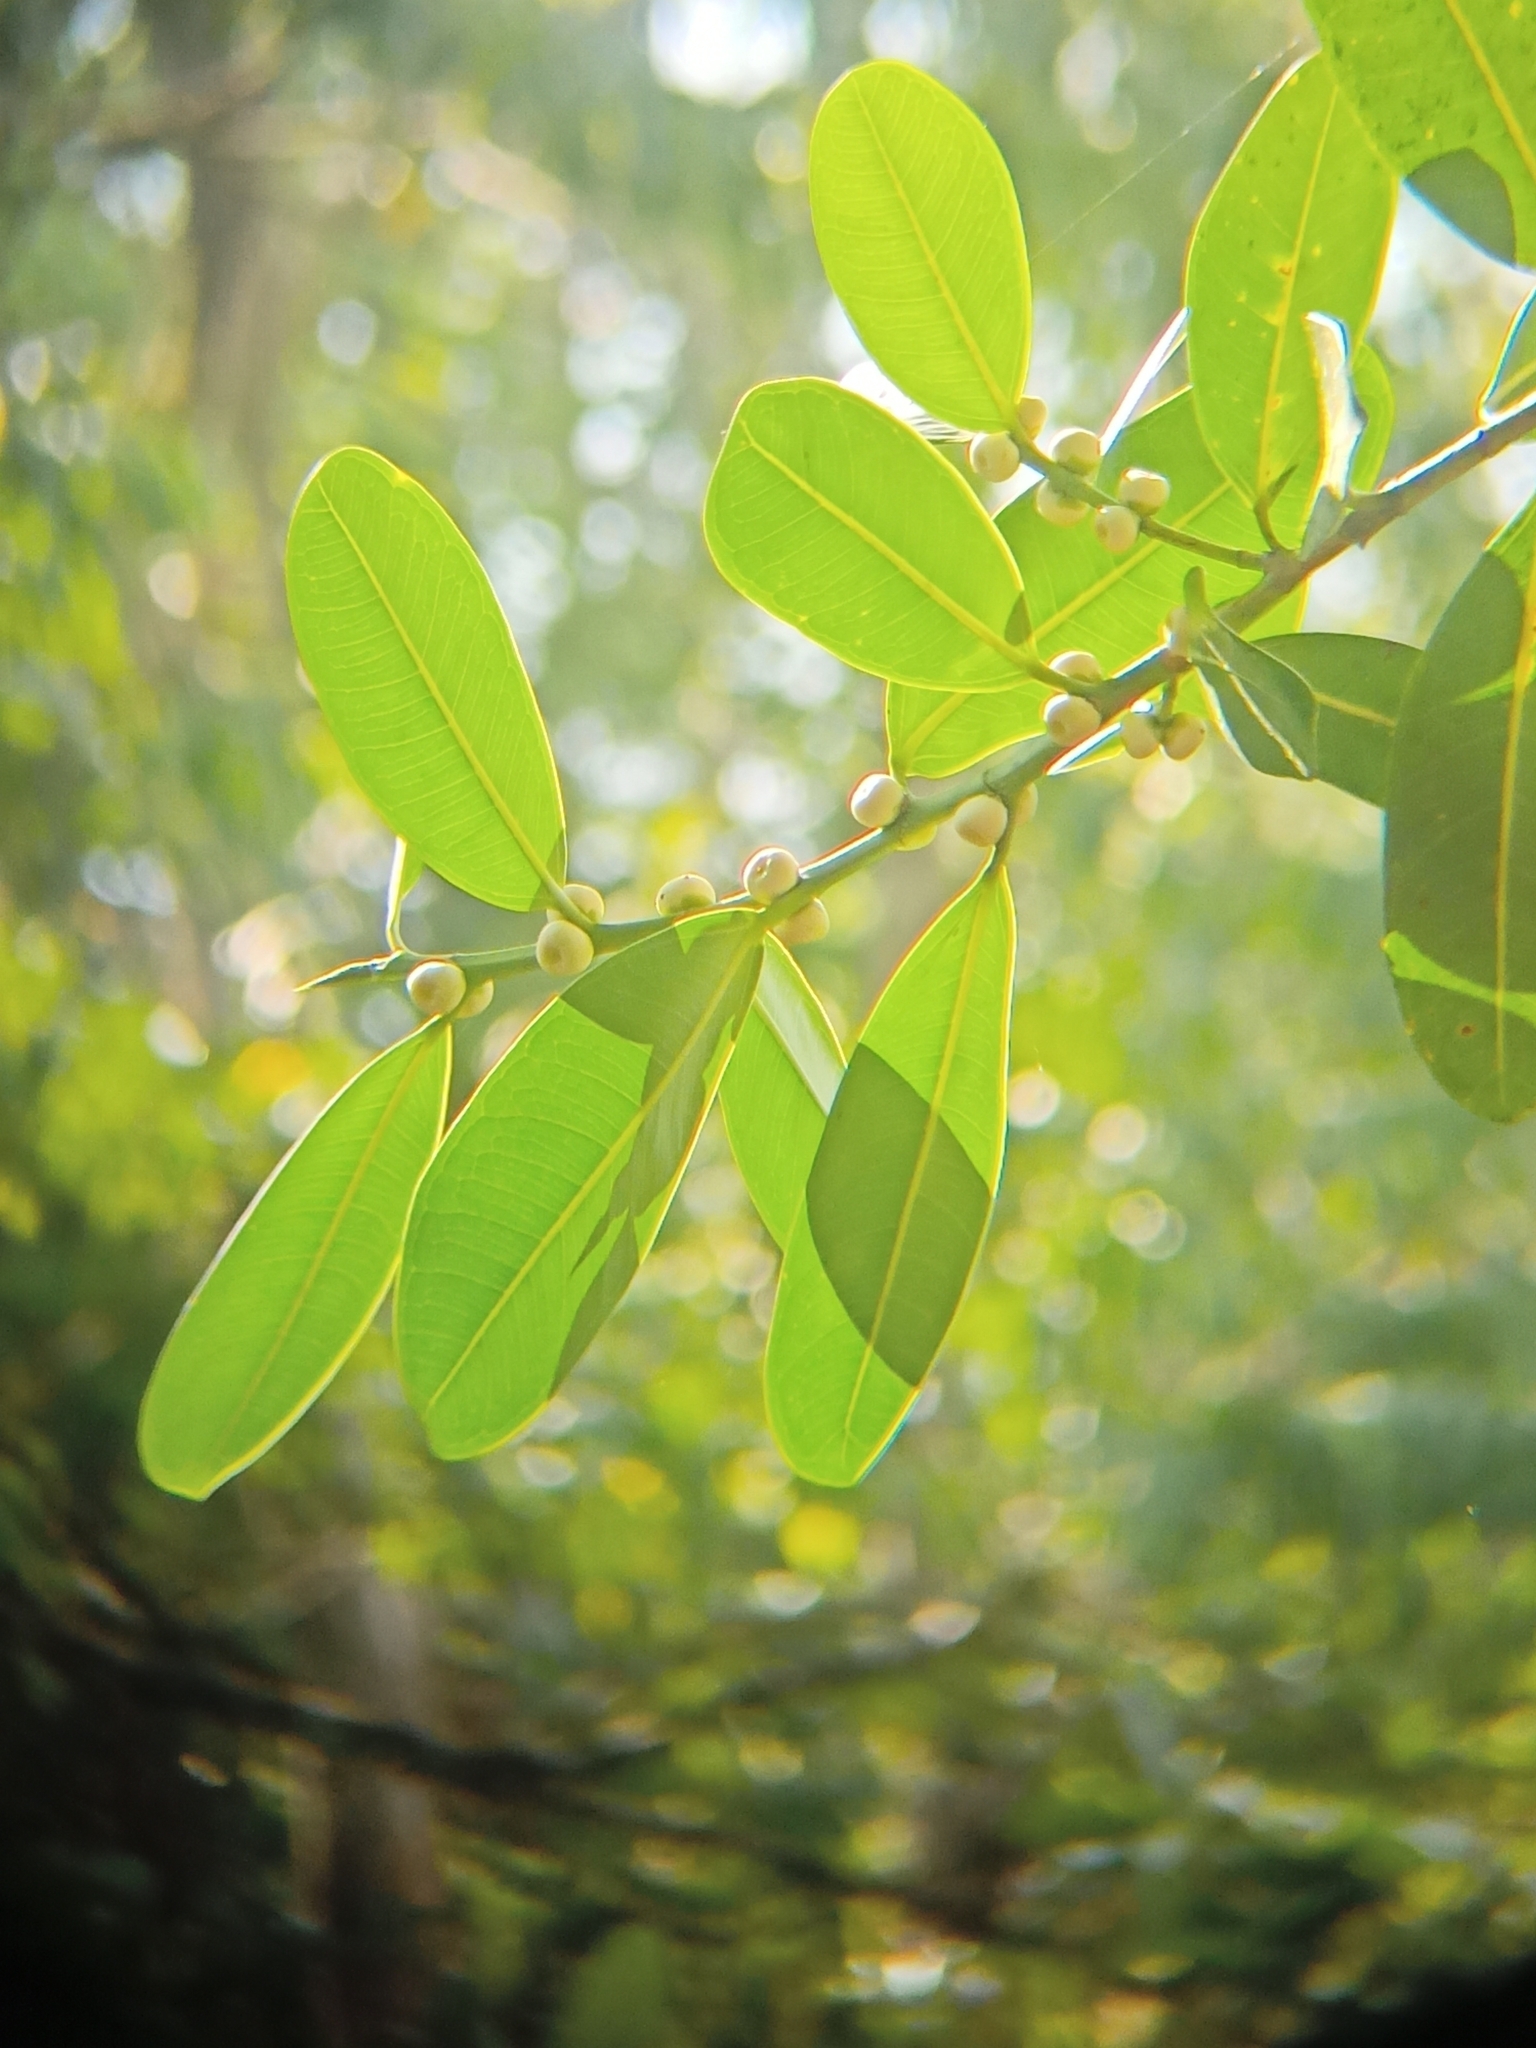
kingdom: Plantae
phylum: Tracheophyta
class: Magnoliopsida
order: Rosales
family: Moraceae
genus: Ficus
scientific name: Ficus curtipes
